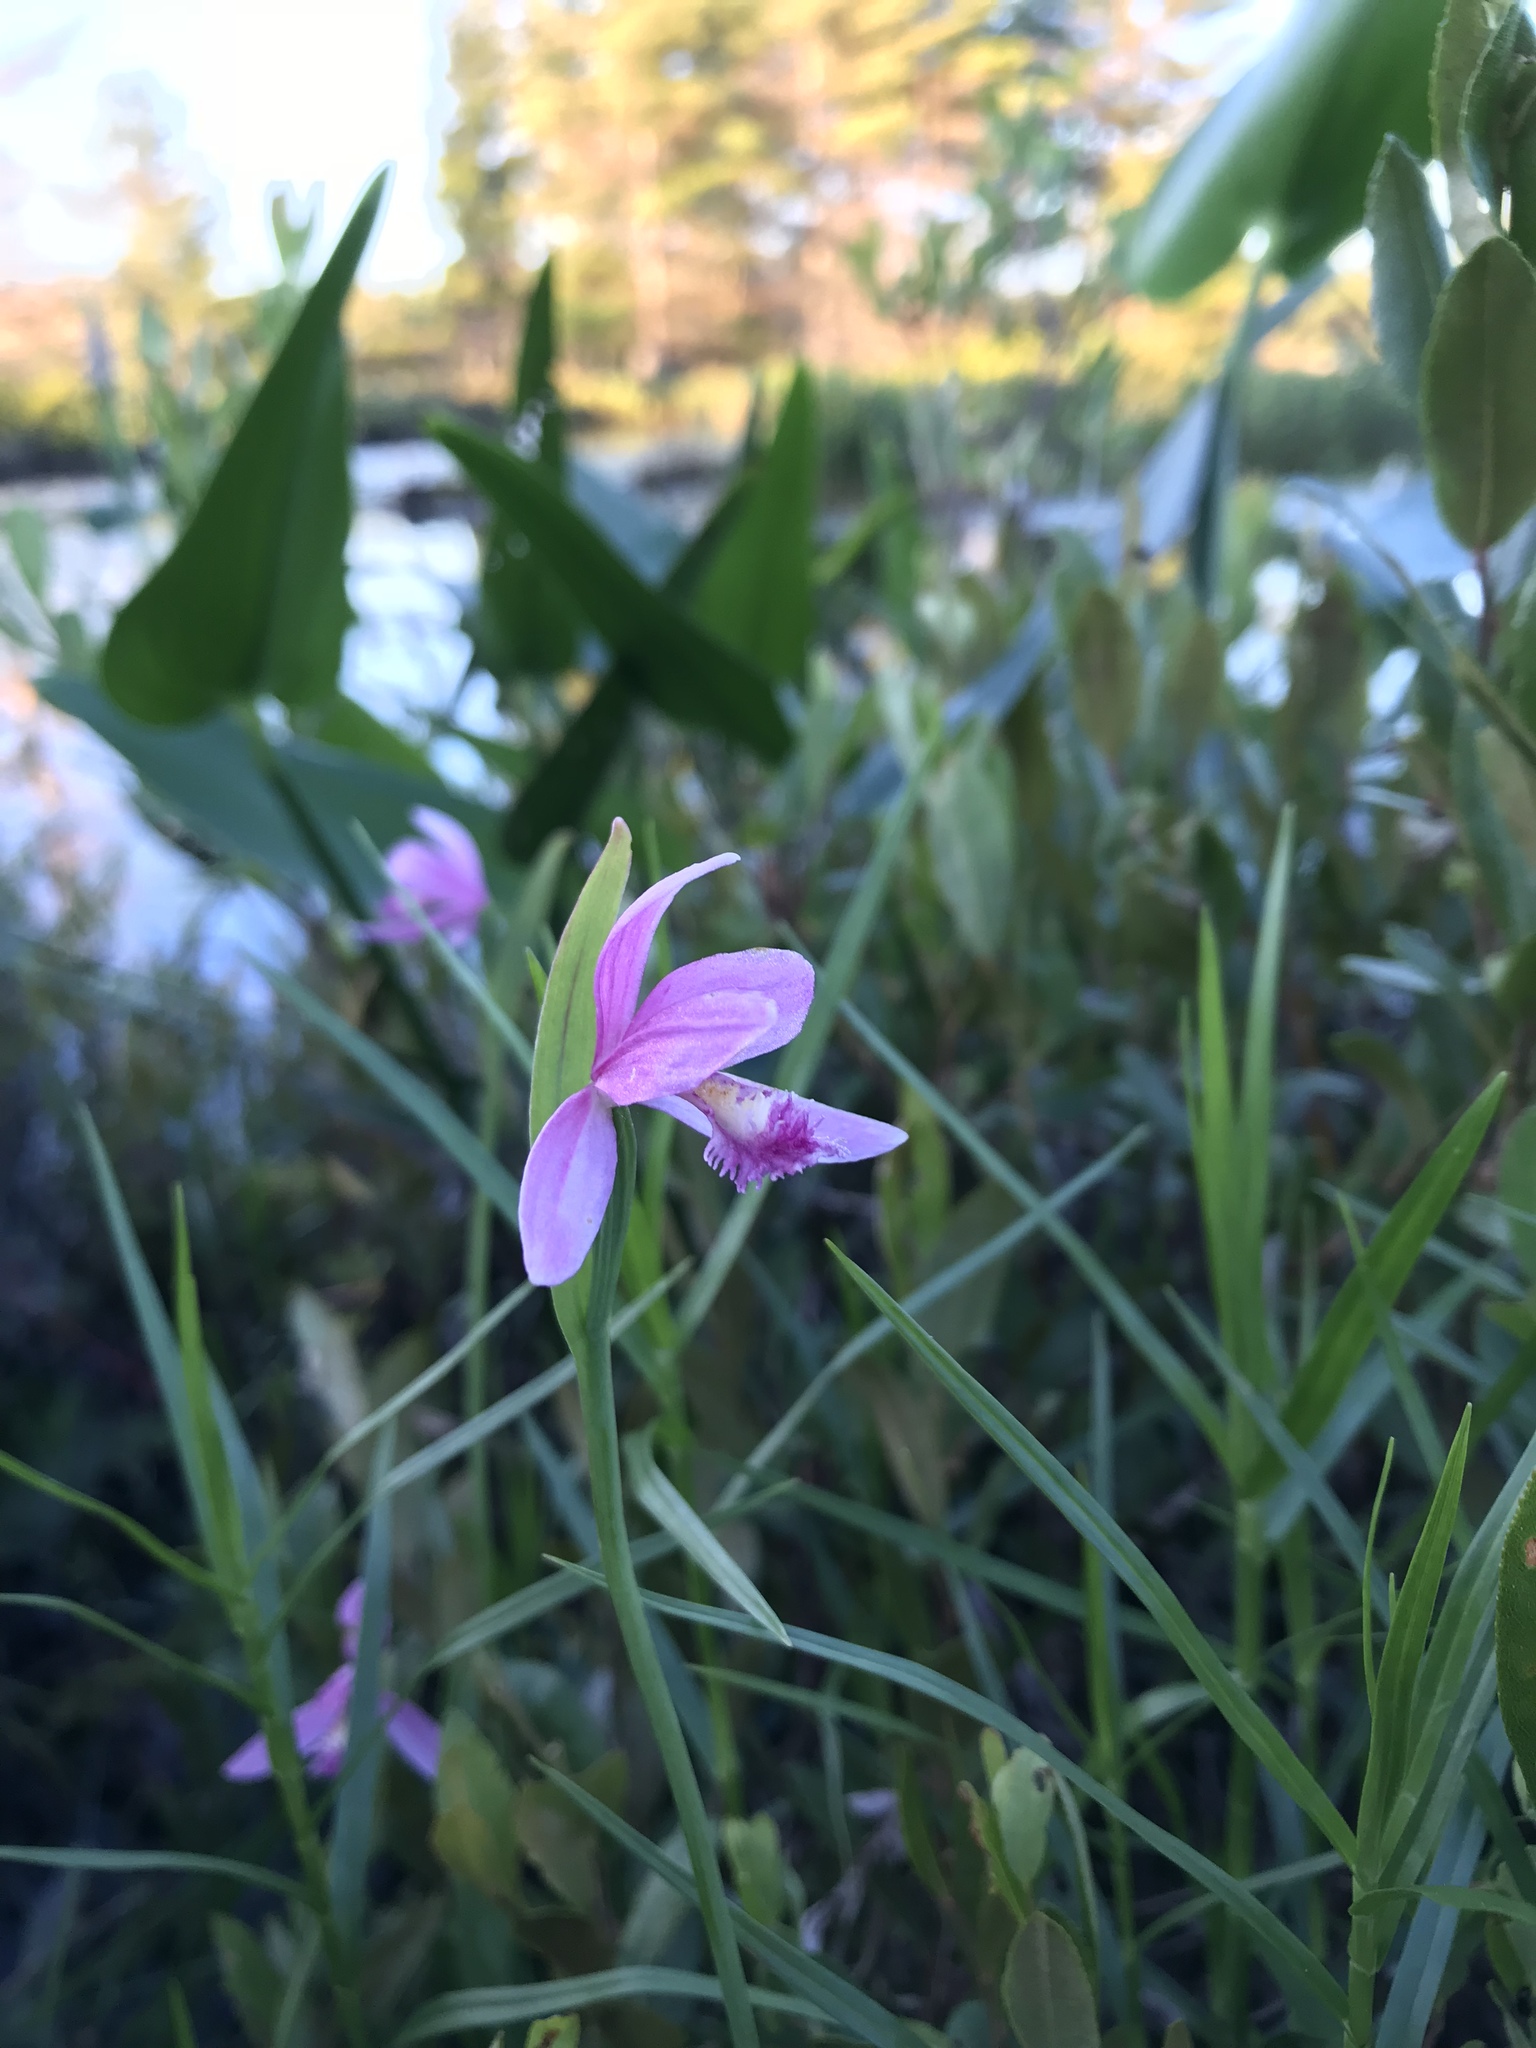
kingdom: Plantae
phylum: Tracheophyta
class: Liliopsida
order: Asparagales
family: Orchidaceae
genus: Pogonia
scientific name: Pogonia ophioglossoides
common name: Rose pogonia
